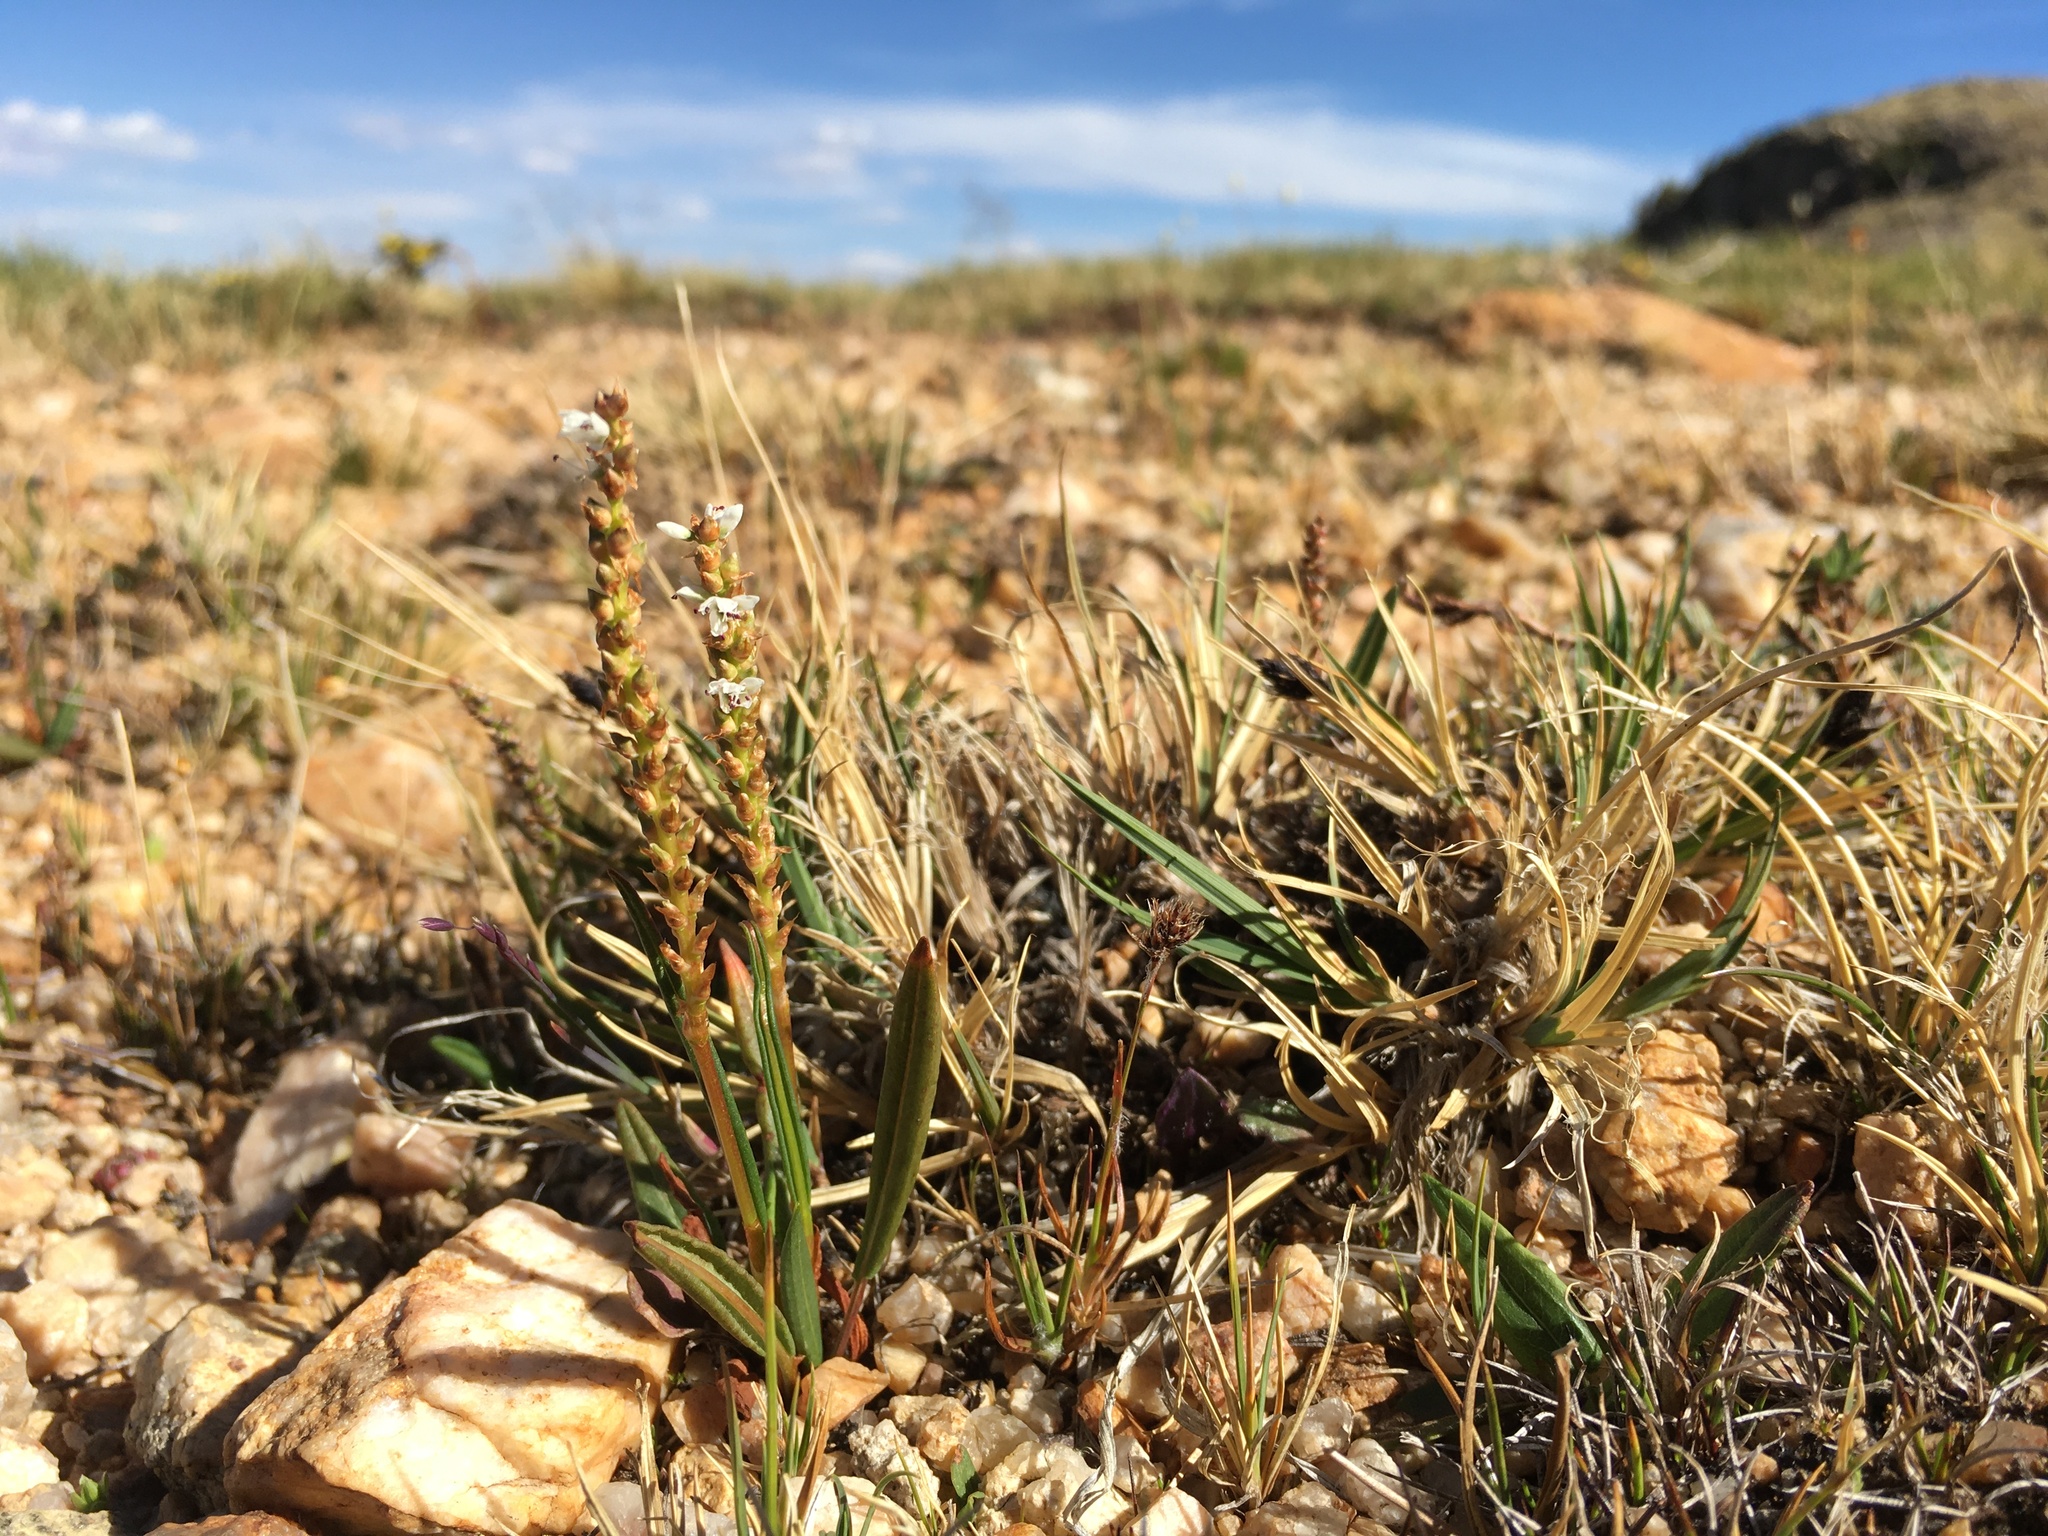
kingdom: Plantae
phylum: Tracheophyta
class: Magnoliopsida
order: Caryophyllales
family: Polygonaceae
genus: Bistorta
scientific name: Bistorta vivipara
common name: Alpine bistort
